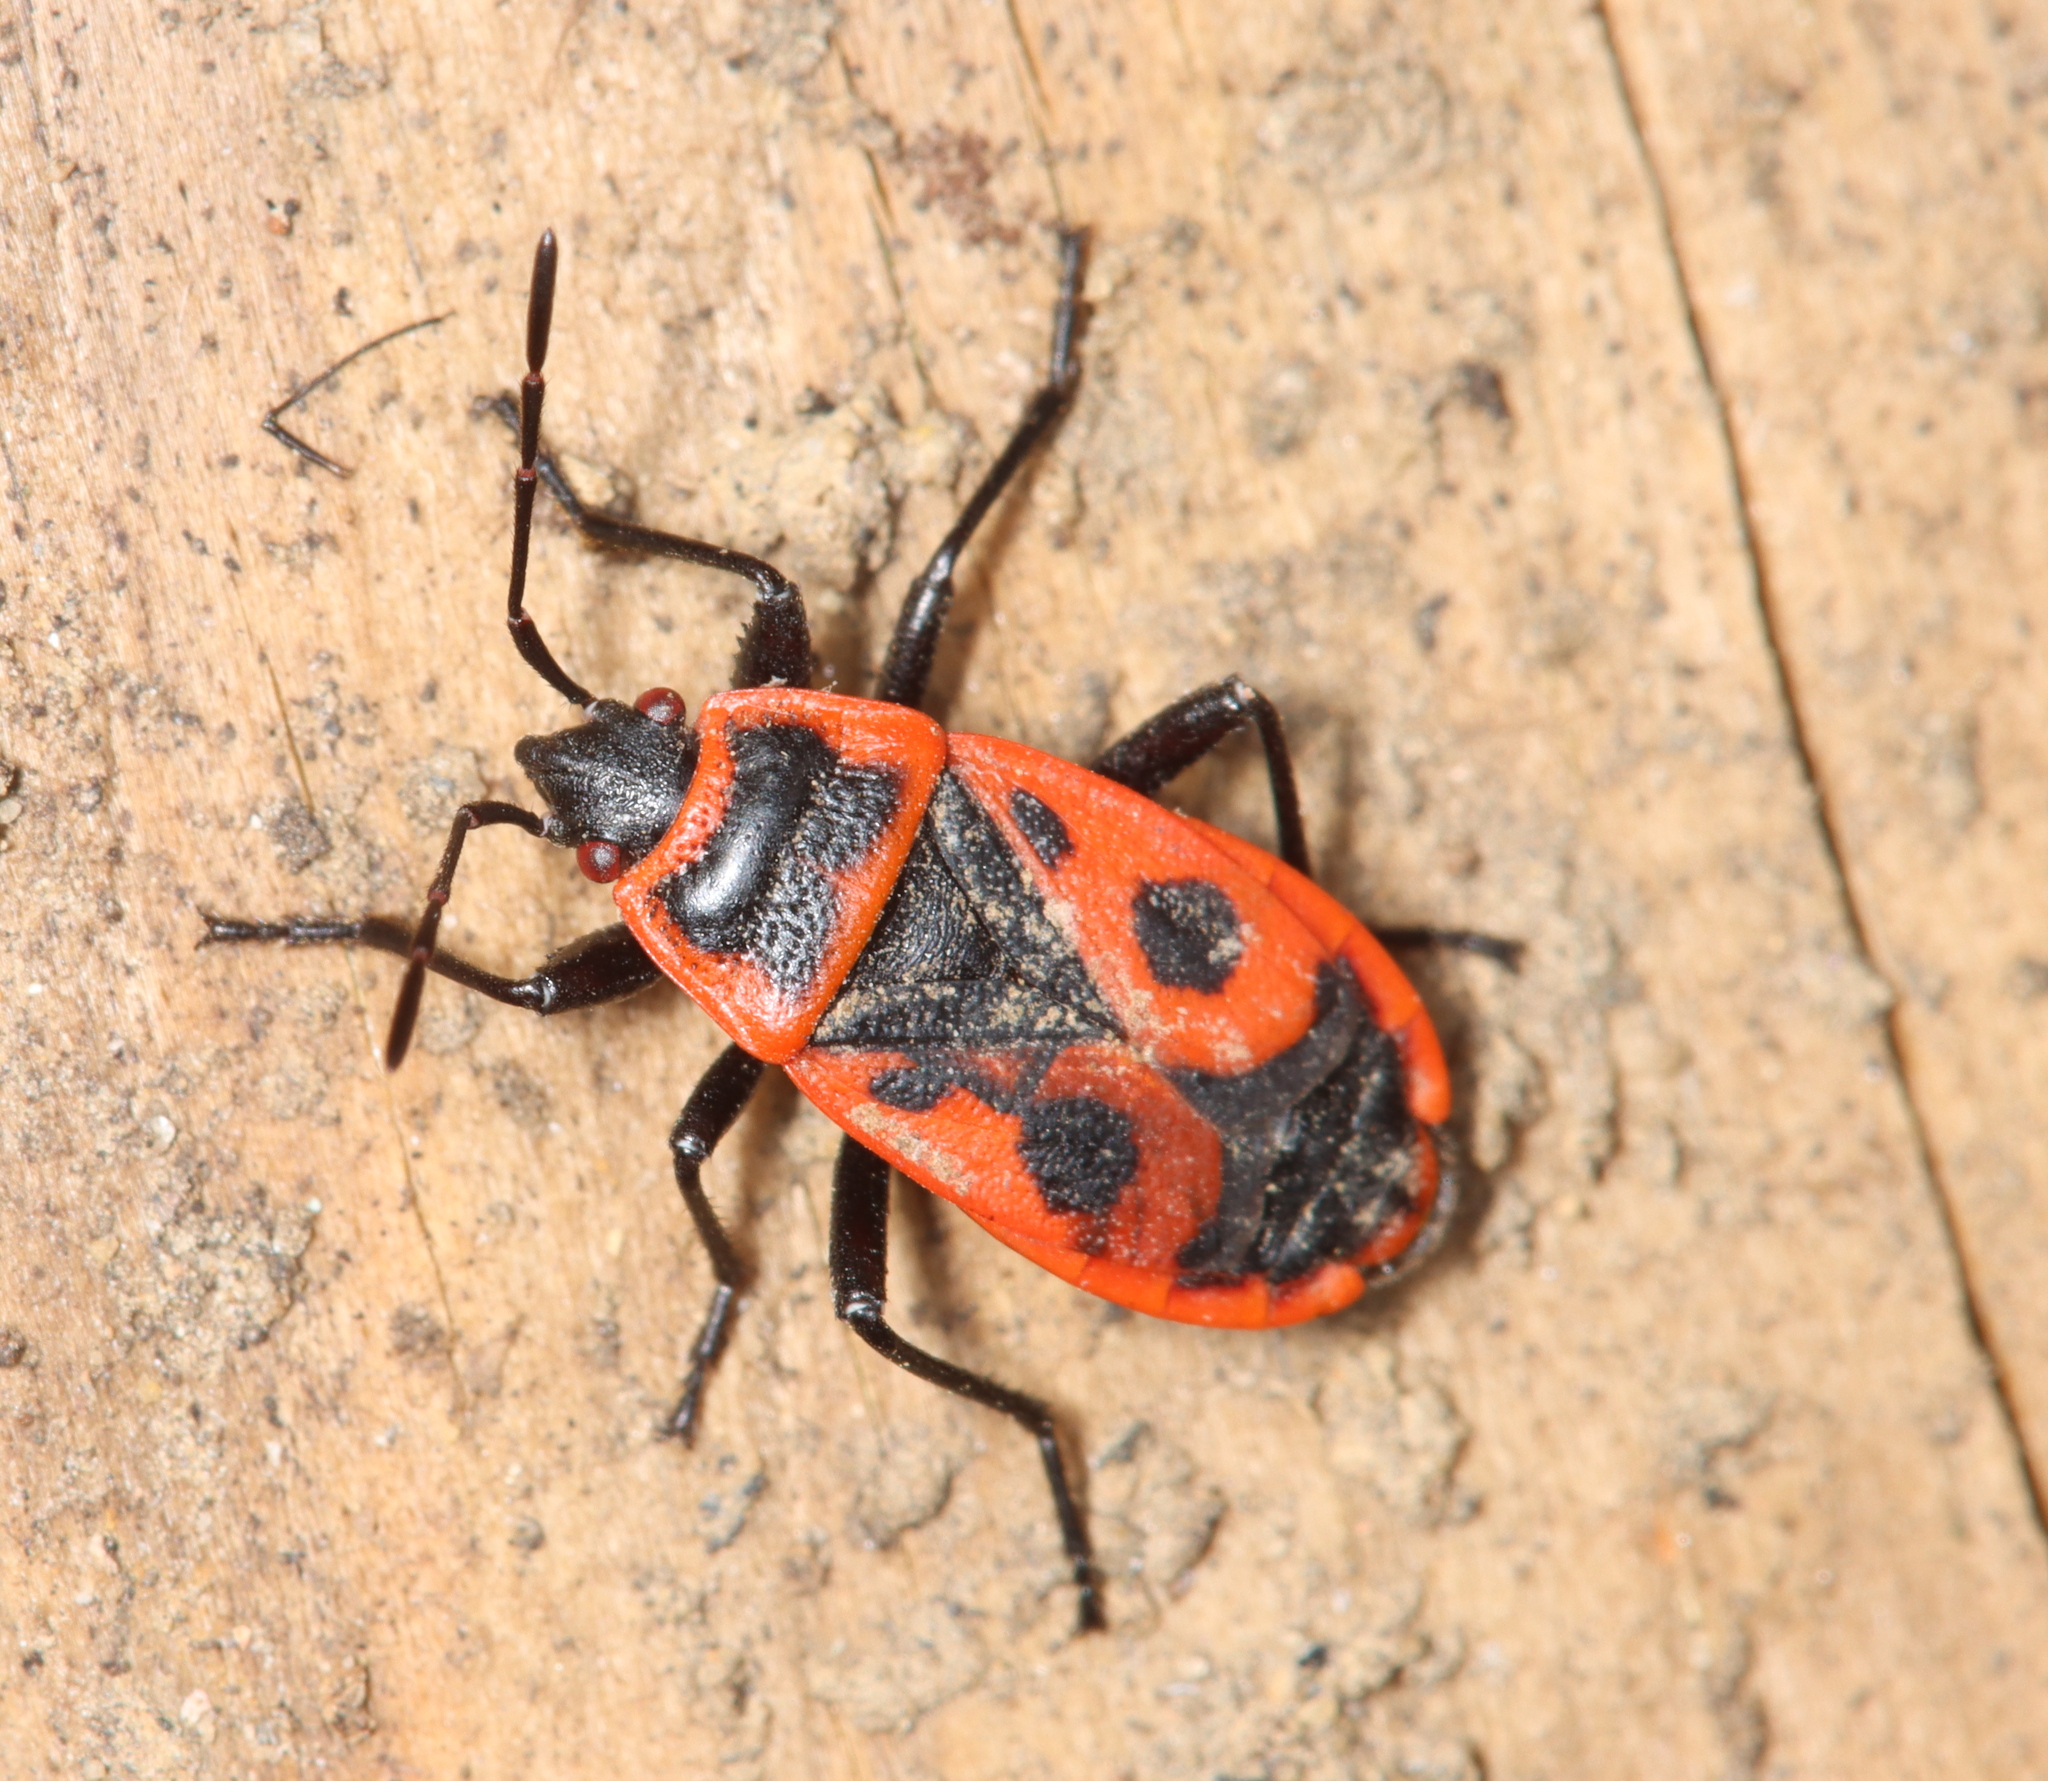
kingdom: Animalia
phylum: Arthropoda
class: Insecta
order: Hemiptera
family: Pyrrhocoridae
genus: Pyrrhocoris
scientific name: Pyrrhocoris apterus
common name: Firebug
